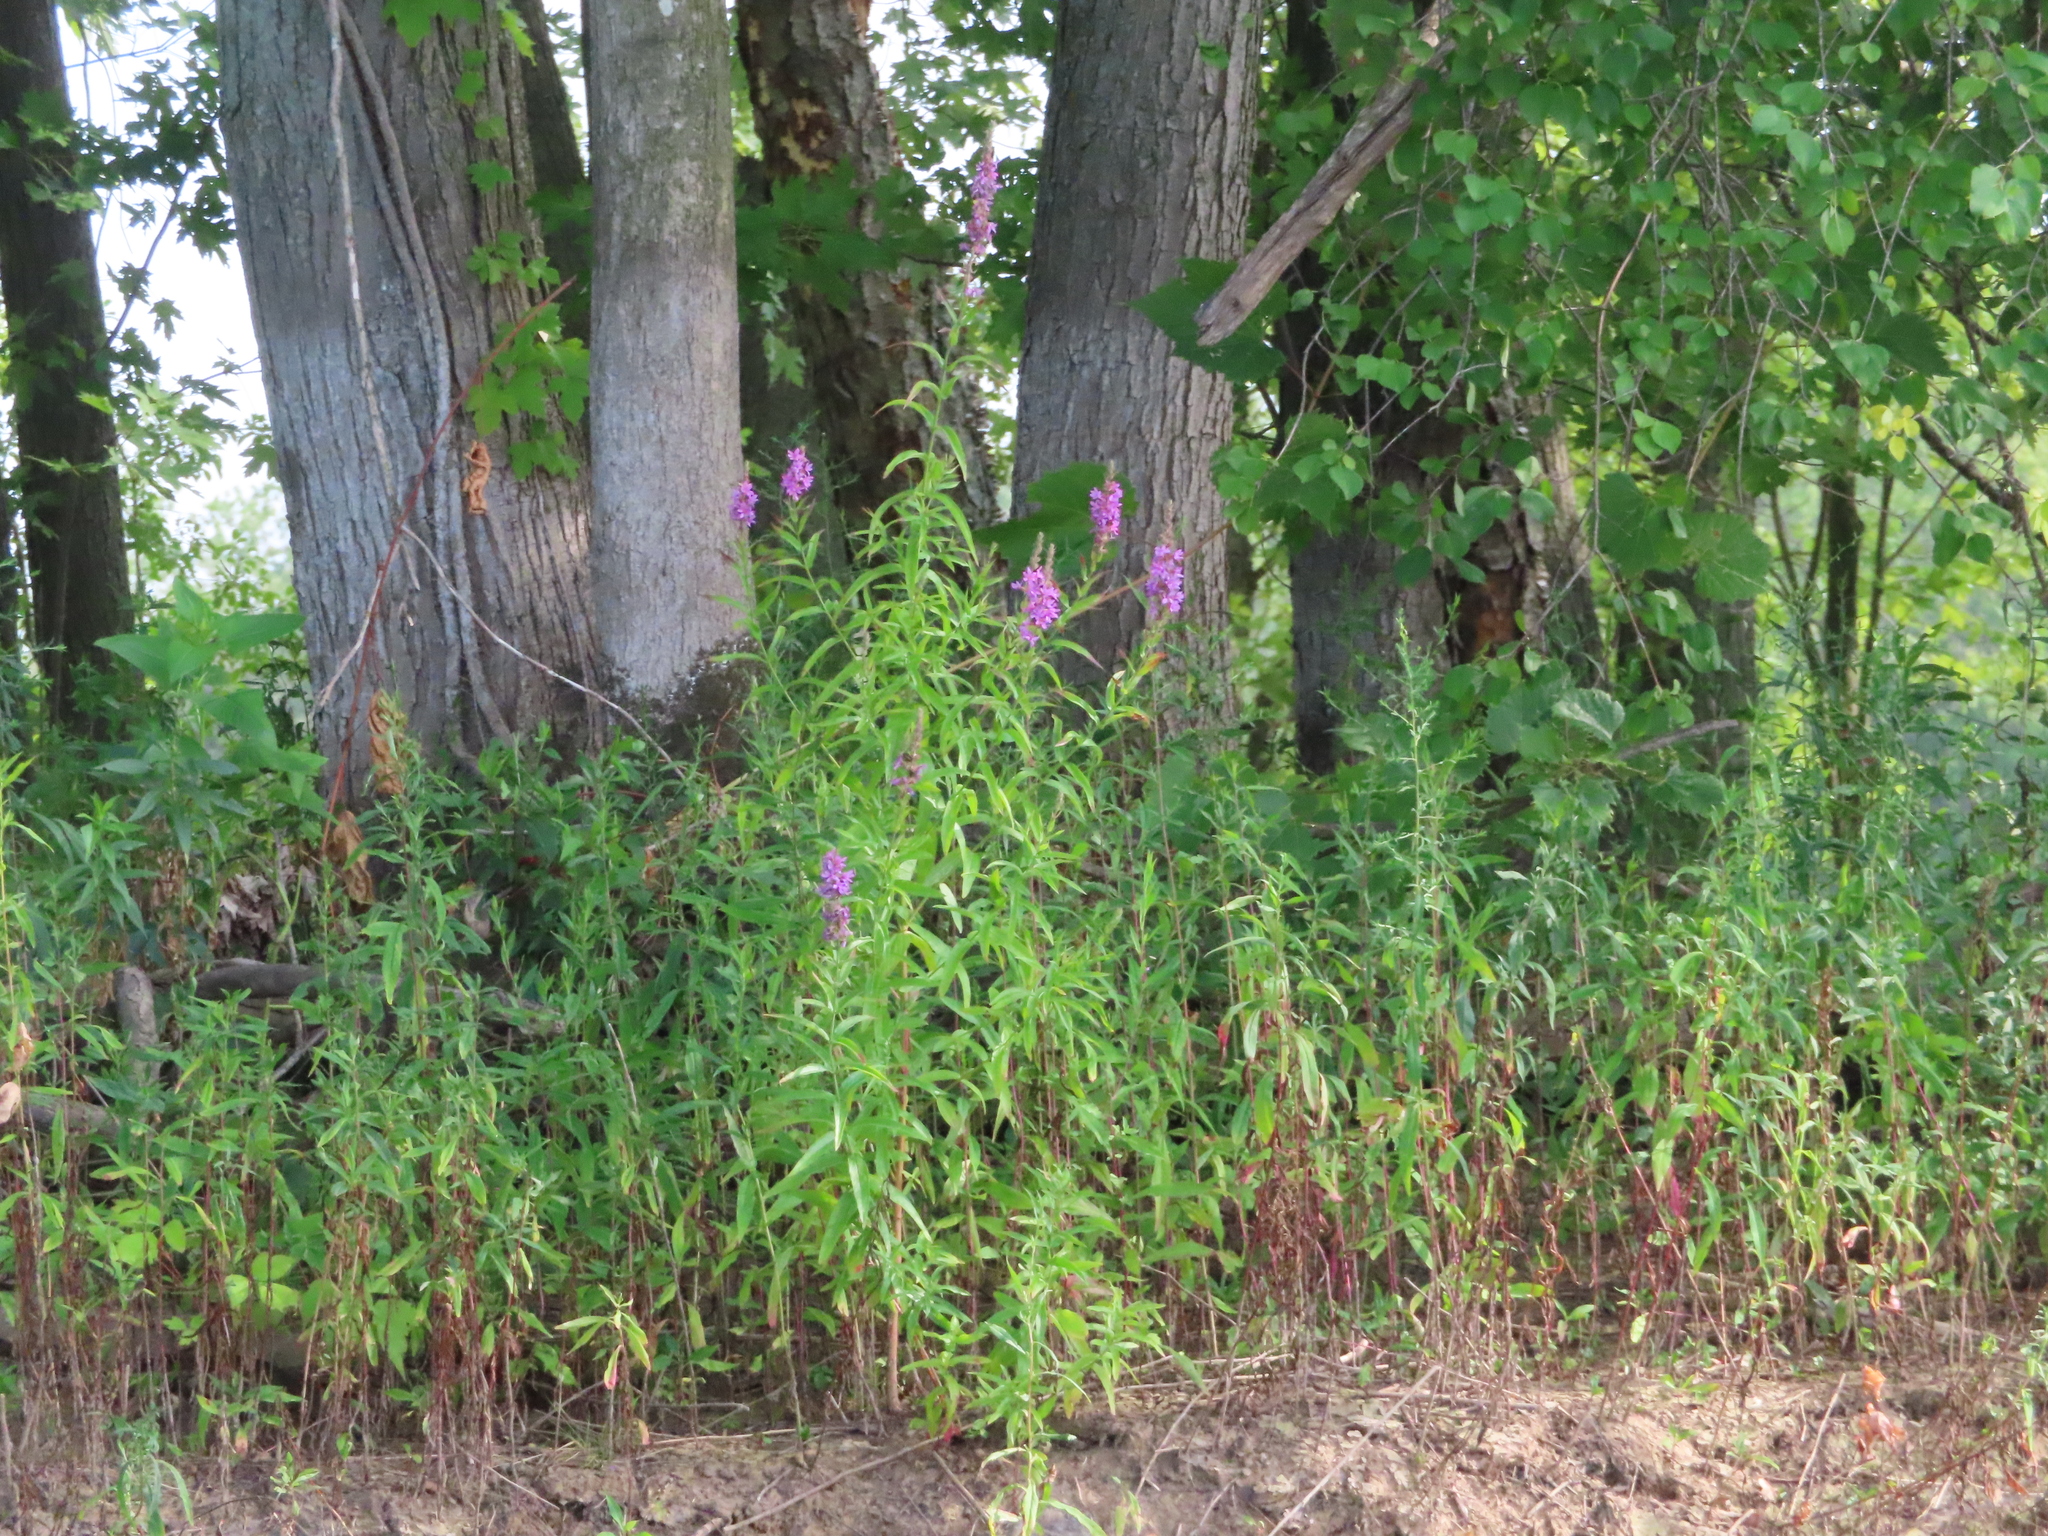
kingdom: Plantae
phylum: Tracheophyta
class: Magnoliopsida
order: Myrtales
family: Lythraceae
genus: Lythrum
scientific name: Lythrum salicaria
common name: Purple loosestrife
